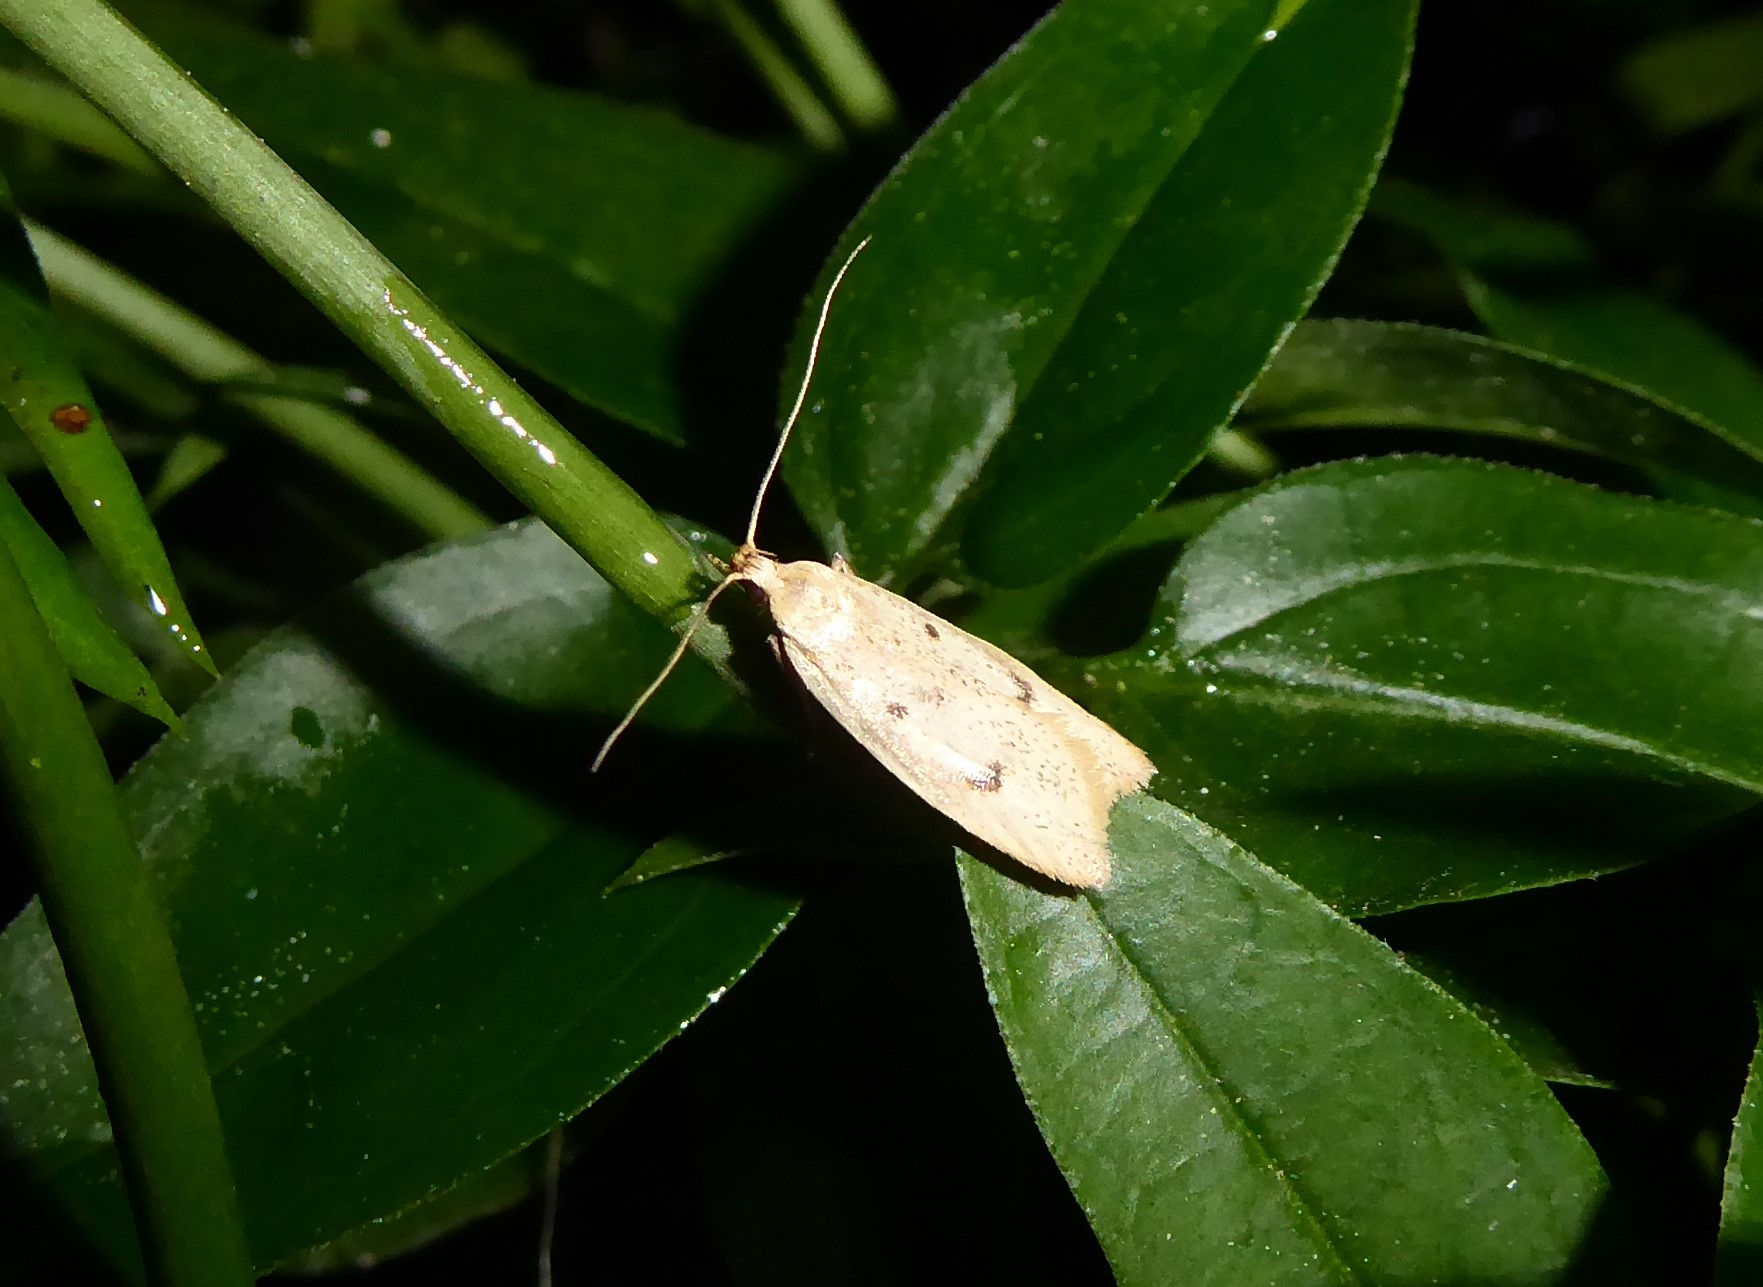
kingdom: Animalia
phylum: Arthropoda
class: Insecta
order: Lepidoptera
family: Oecophoridae
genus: Gymnobathra
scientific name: Gymnobathra sarcoxantha
